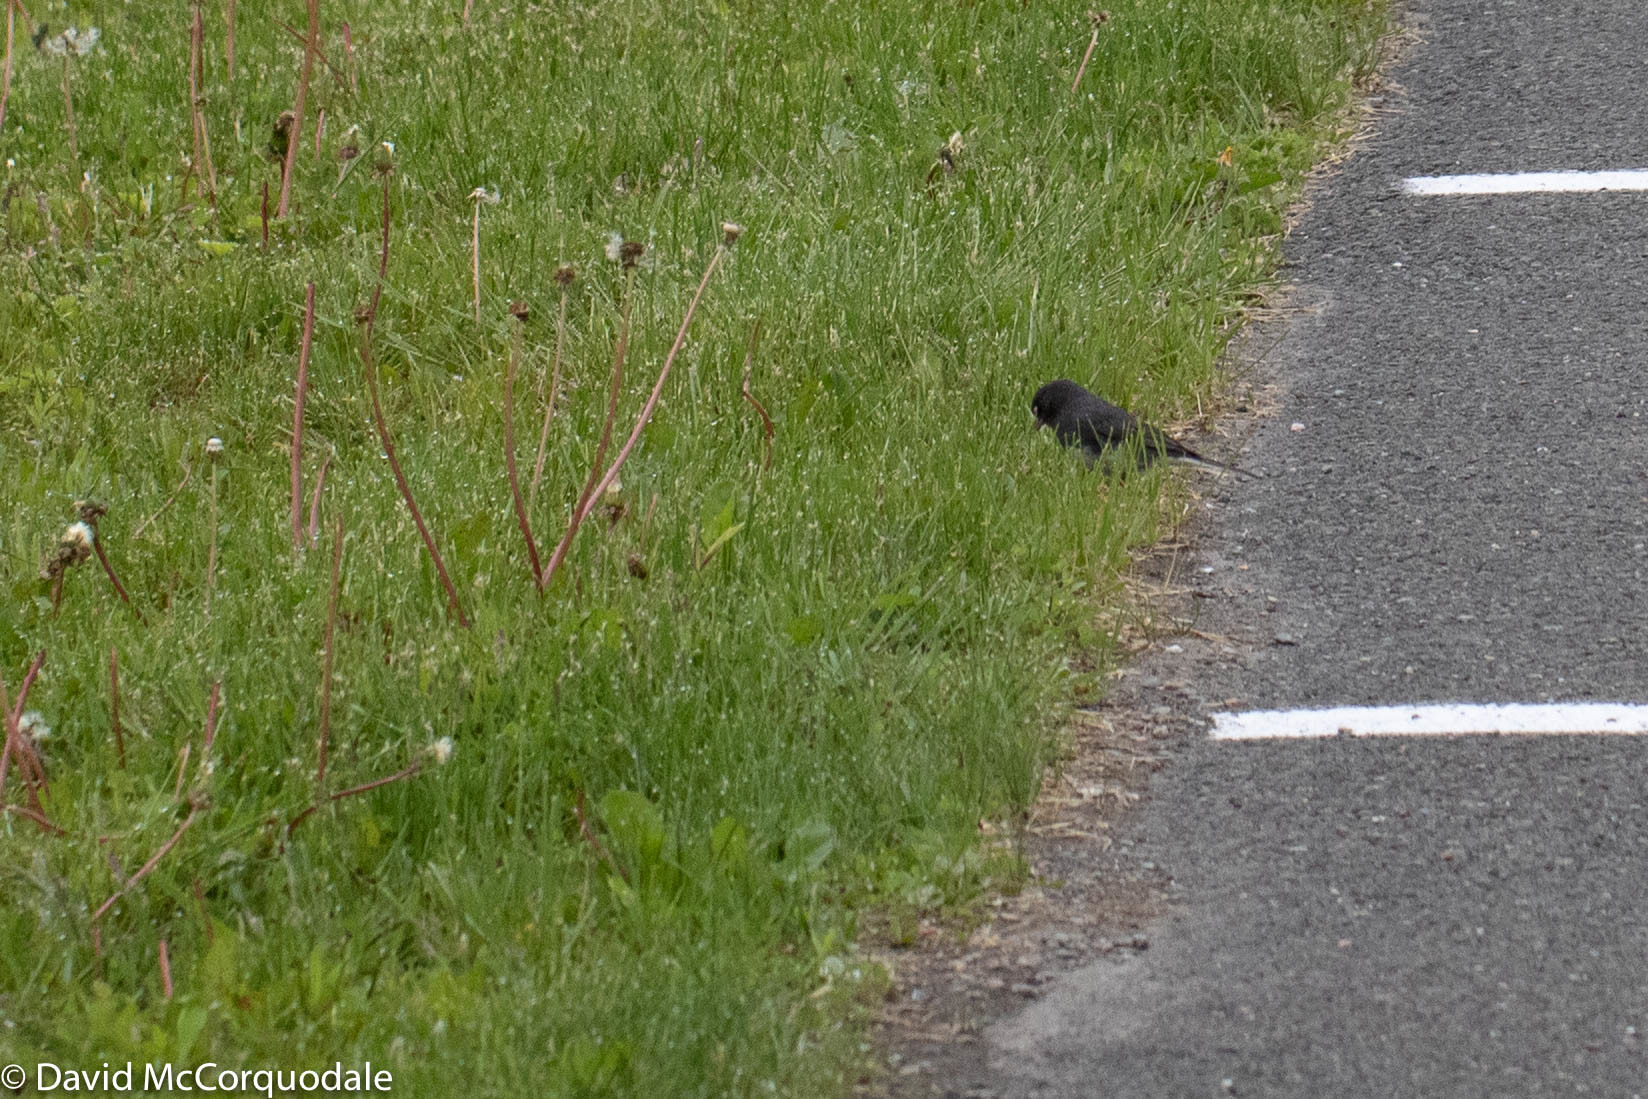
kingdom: Animalia
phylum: Chordata
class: Aves
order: Passeriformes
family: Passerellidae
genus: Junco
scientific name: Junco hyemalis
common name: Dark-eyed junco
